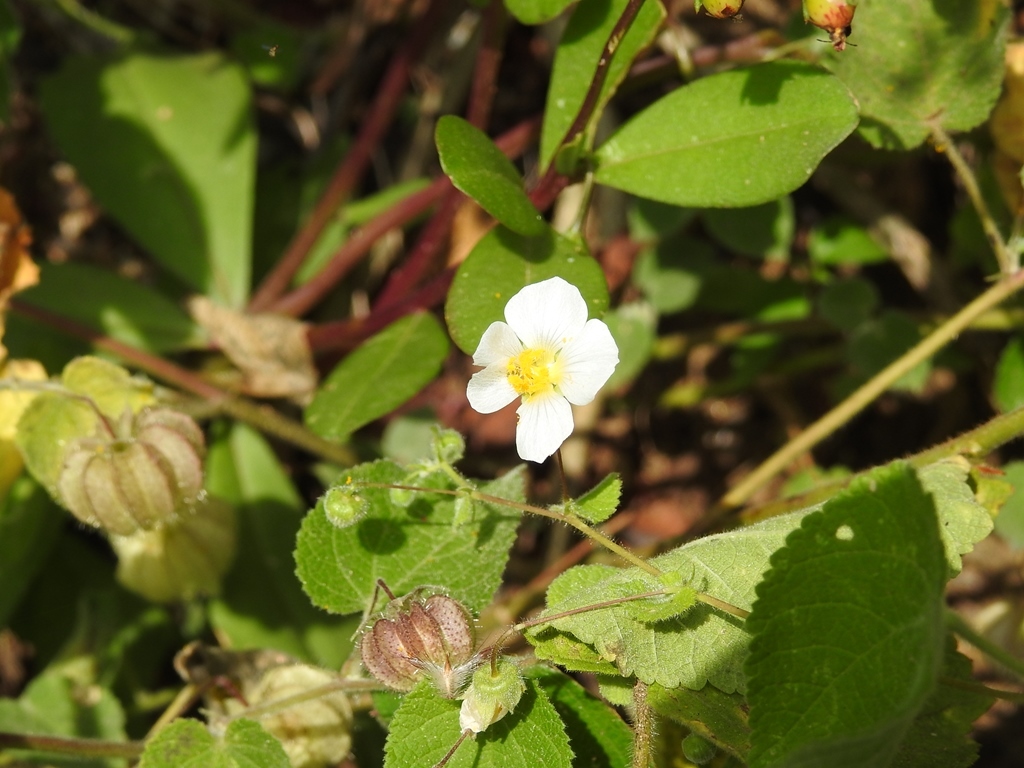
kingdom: Plantae
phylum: Tracheophyta
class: Magnoliopsida
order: Malvales
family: Malvaceae
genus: Herissantia
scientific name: Herissantia crispa
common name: Bladdermallow
